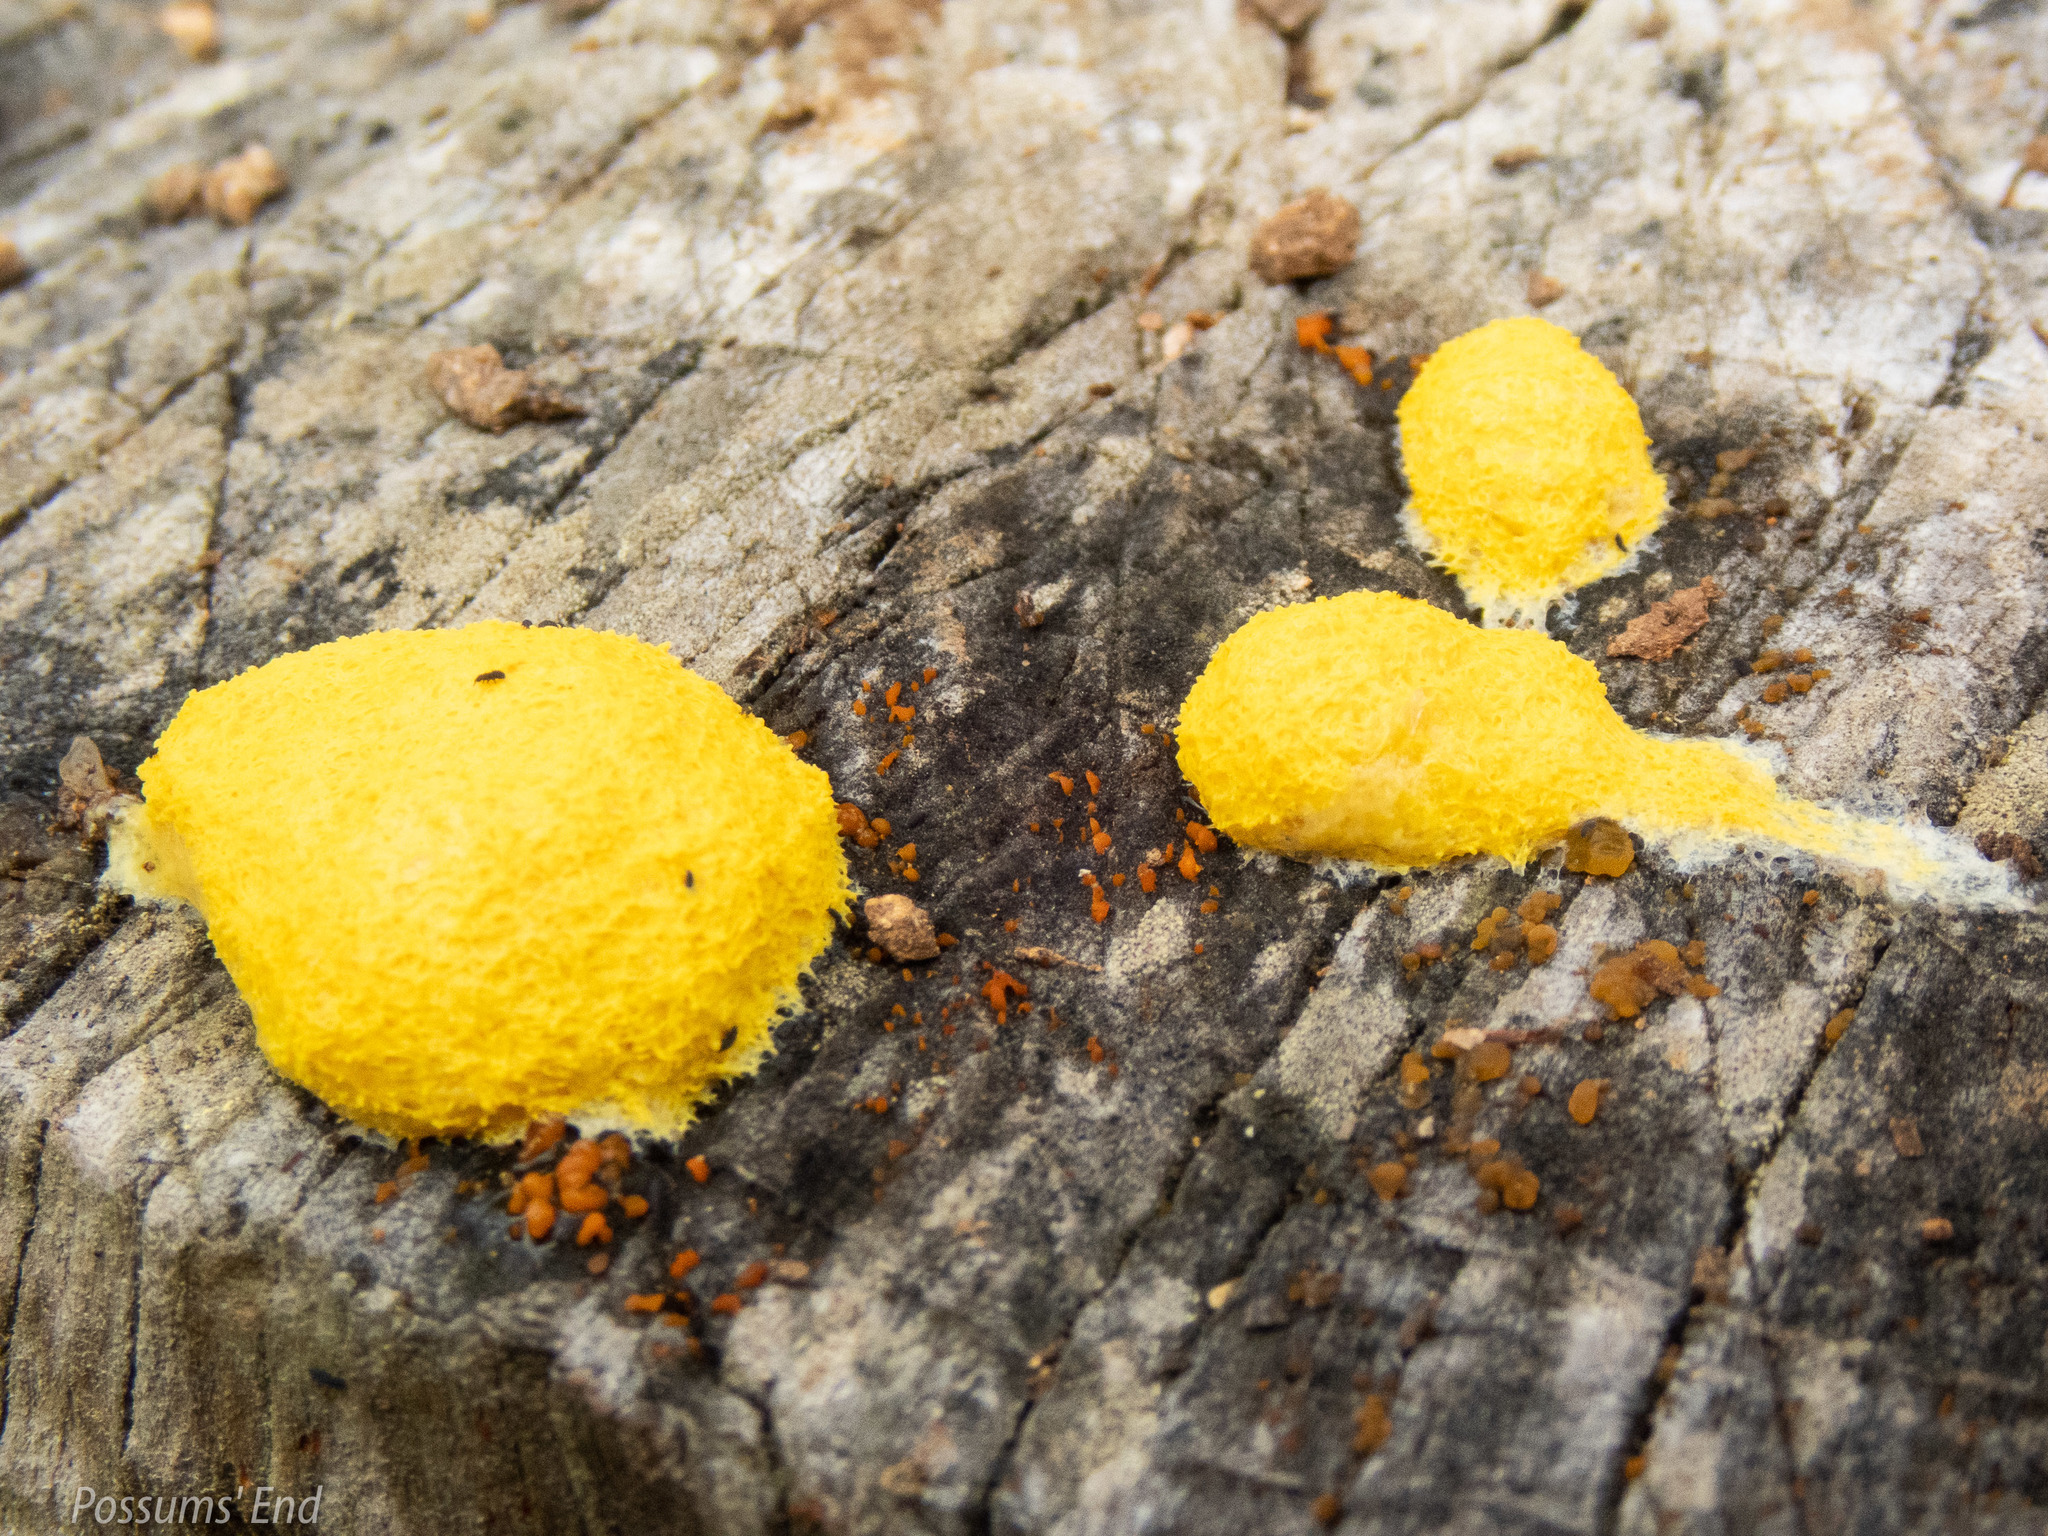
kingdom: Protozoa
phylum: Mycetozoa
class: Myxomycetes
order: Physarales
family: Physaraceae
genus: Fuligo
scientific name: Fuligo septica
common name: Dog vomit slime mold
